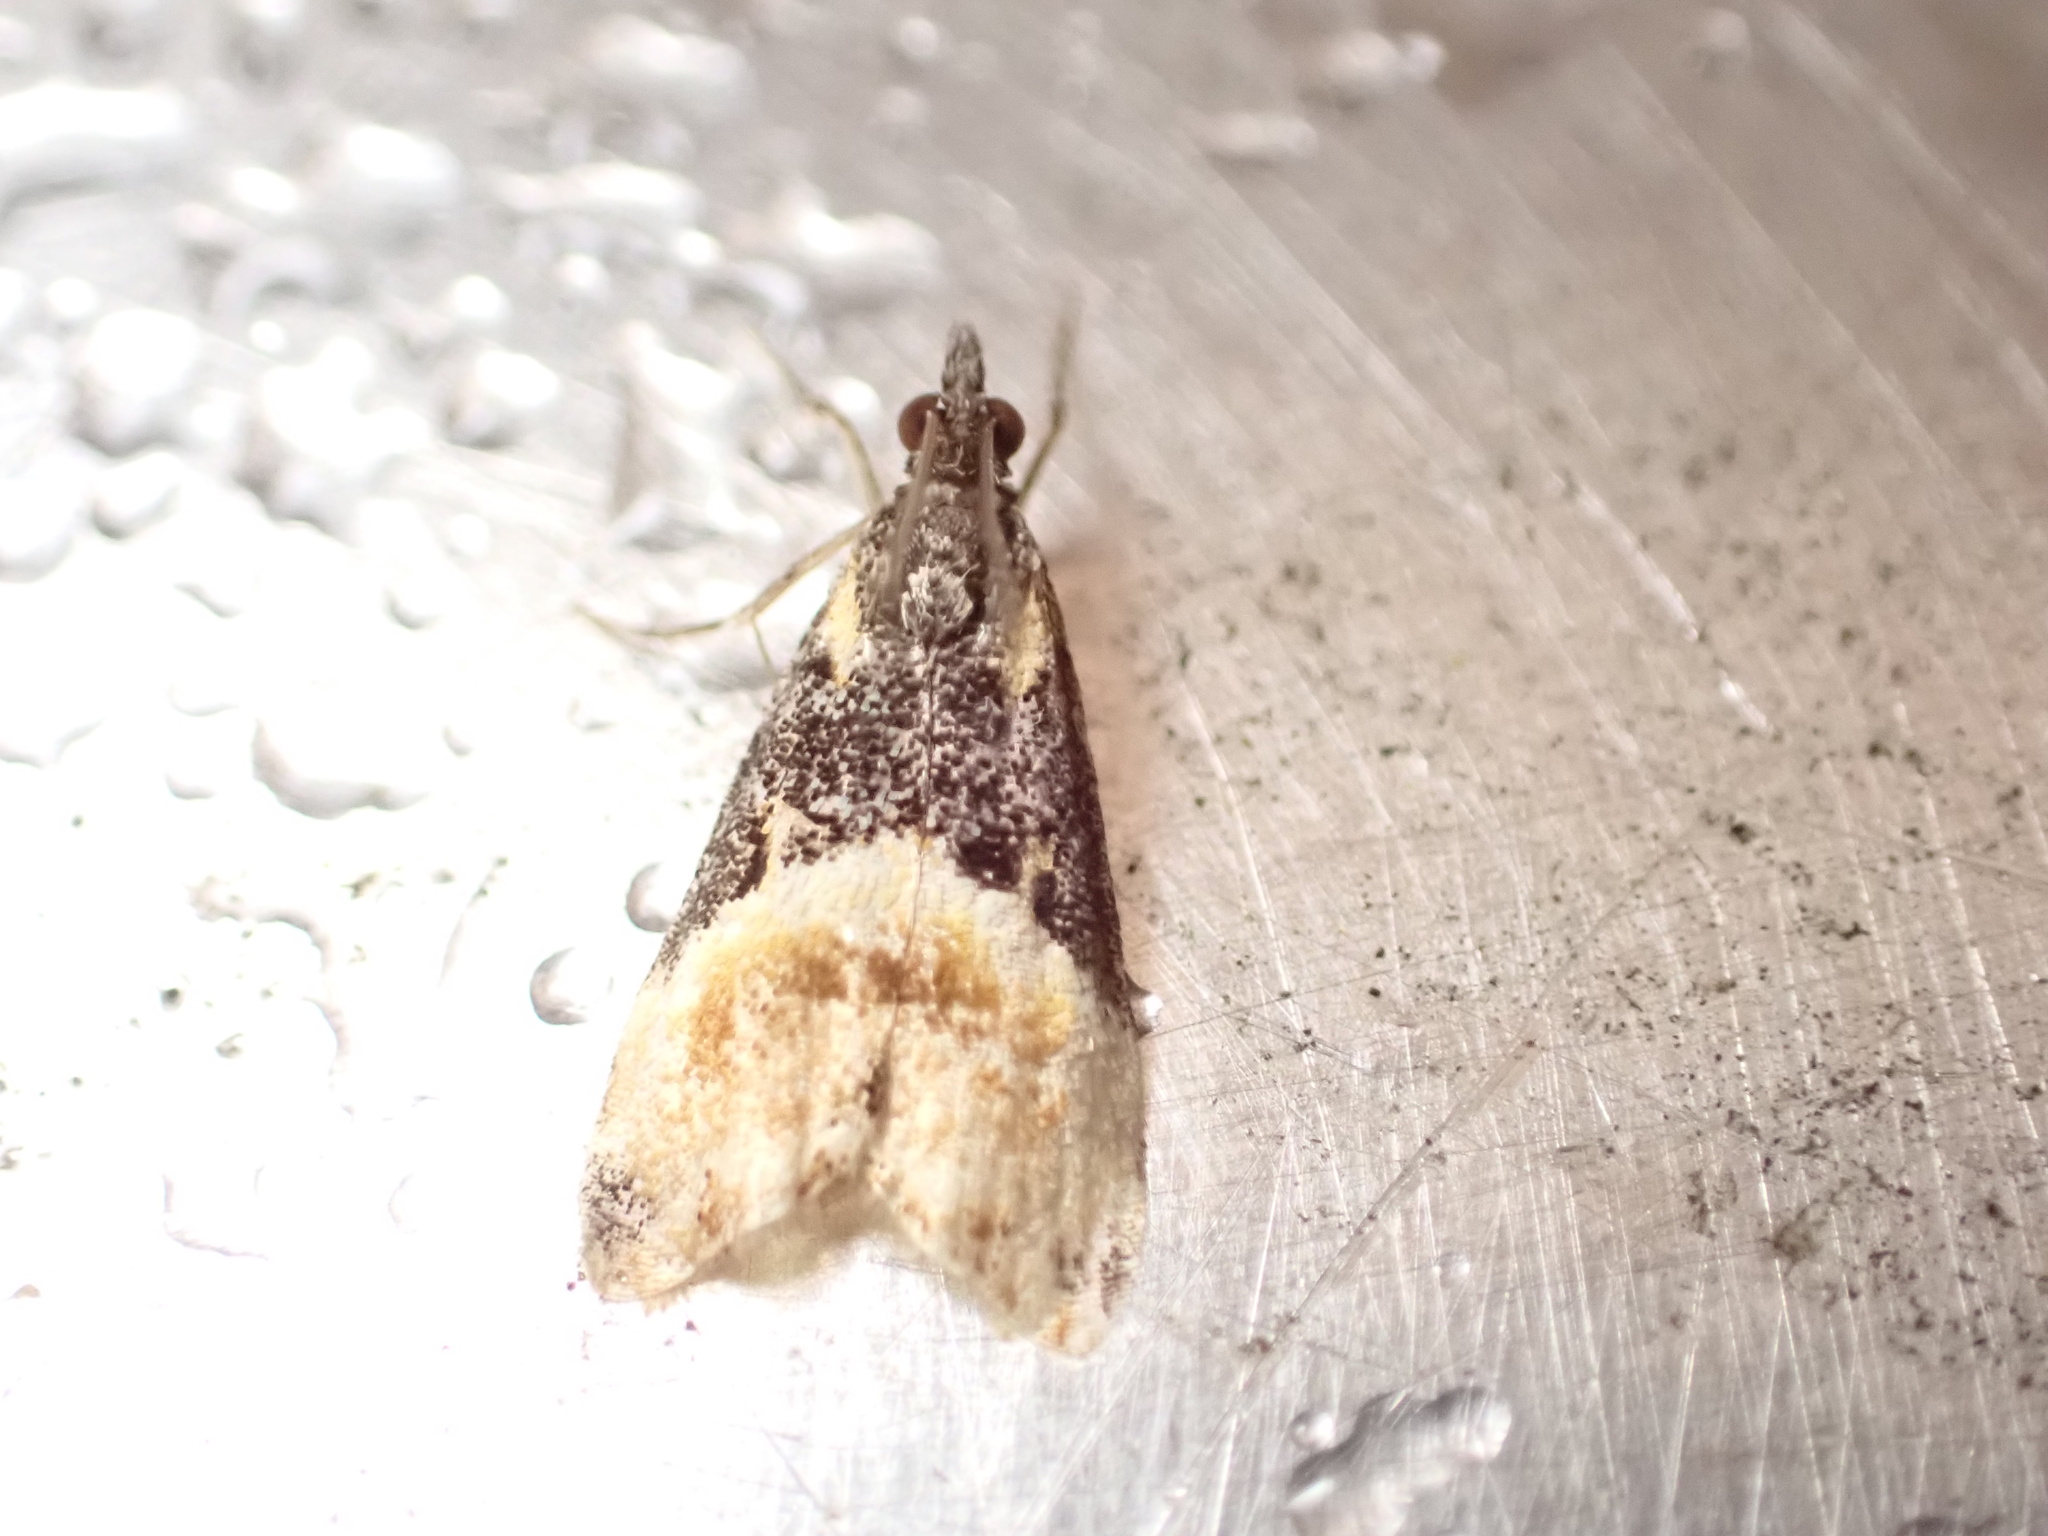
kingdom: Animalia
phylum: Arthropoda
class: Insecta
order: Lepidoptera
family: Crambidae
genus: Eudonia
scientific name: Eudonia chlamydota
